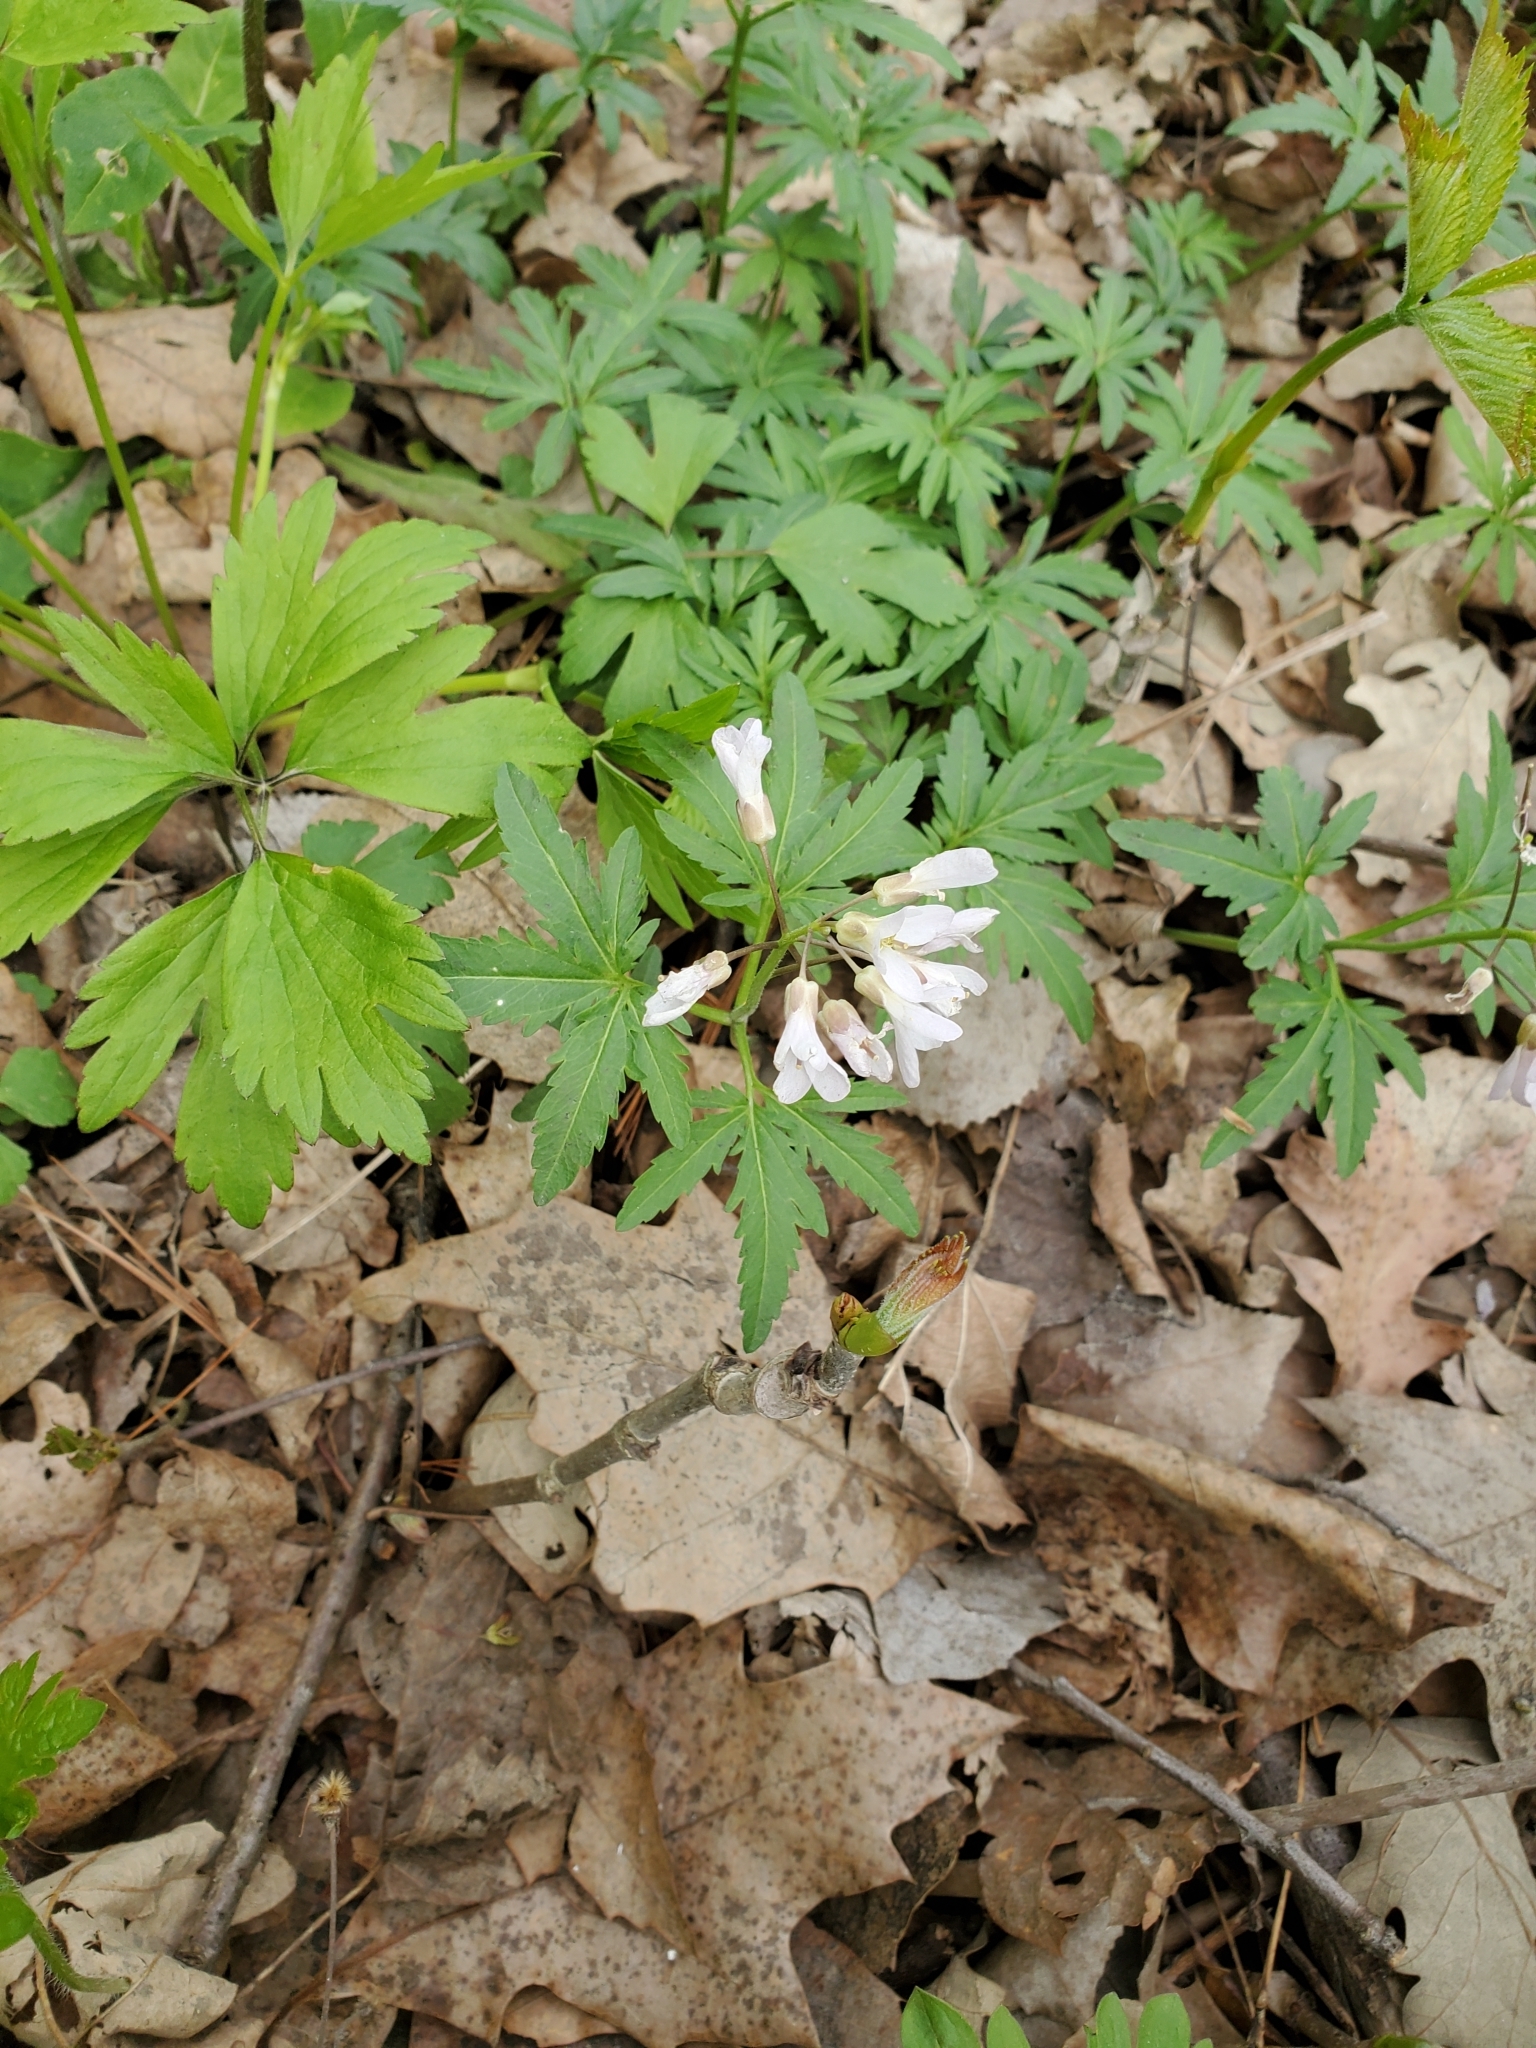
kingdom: Plantae
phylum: Tracheophyta
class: Magnoliopsida
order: Brassicales
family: Brassicaceae
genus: Cardamine
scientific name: Cardamine concatenata
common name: Cut-leaf toothcup
